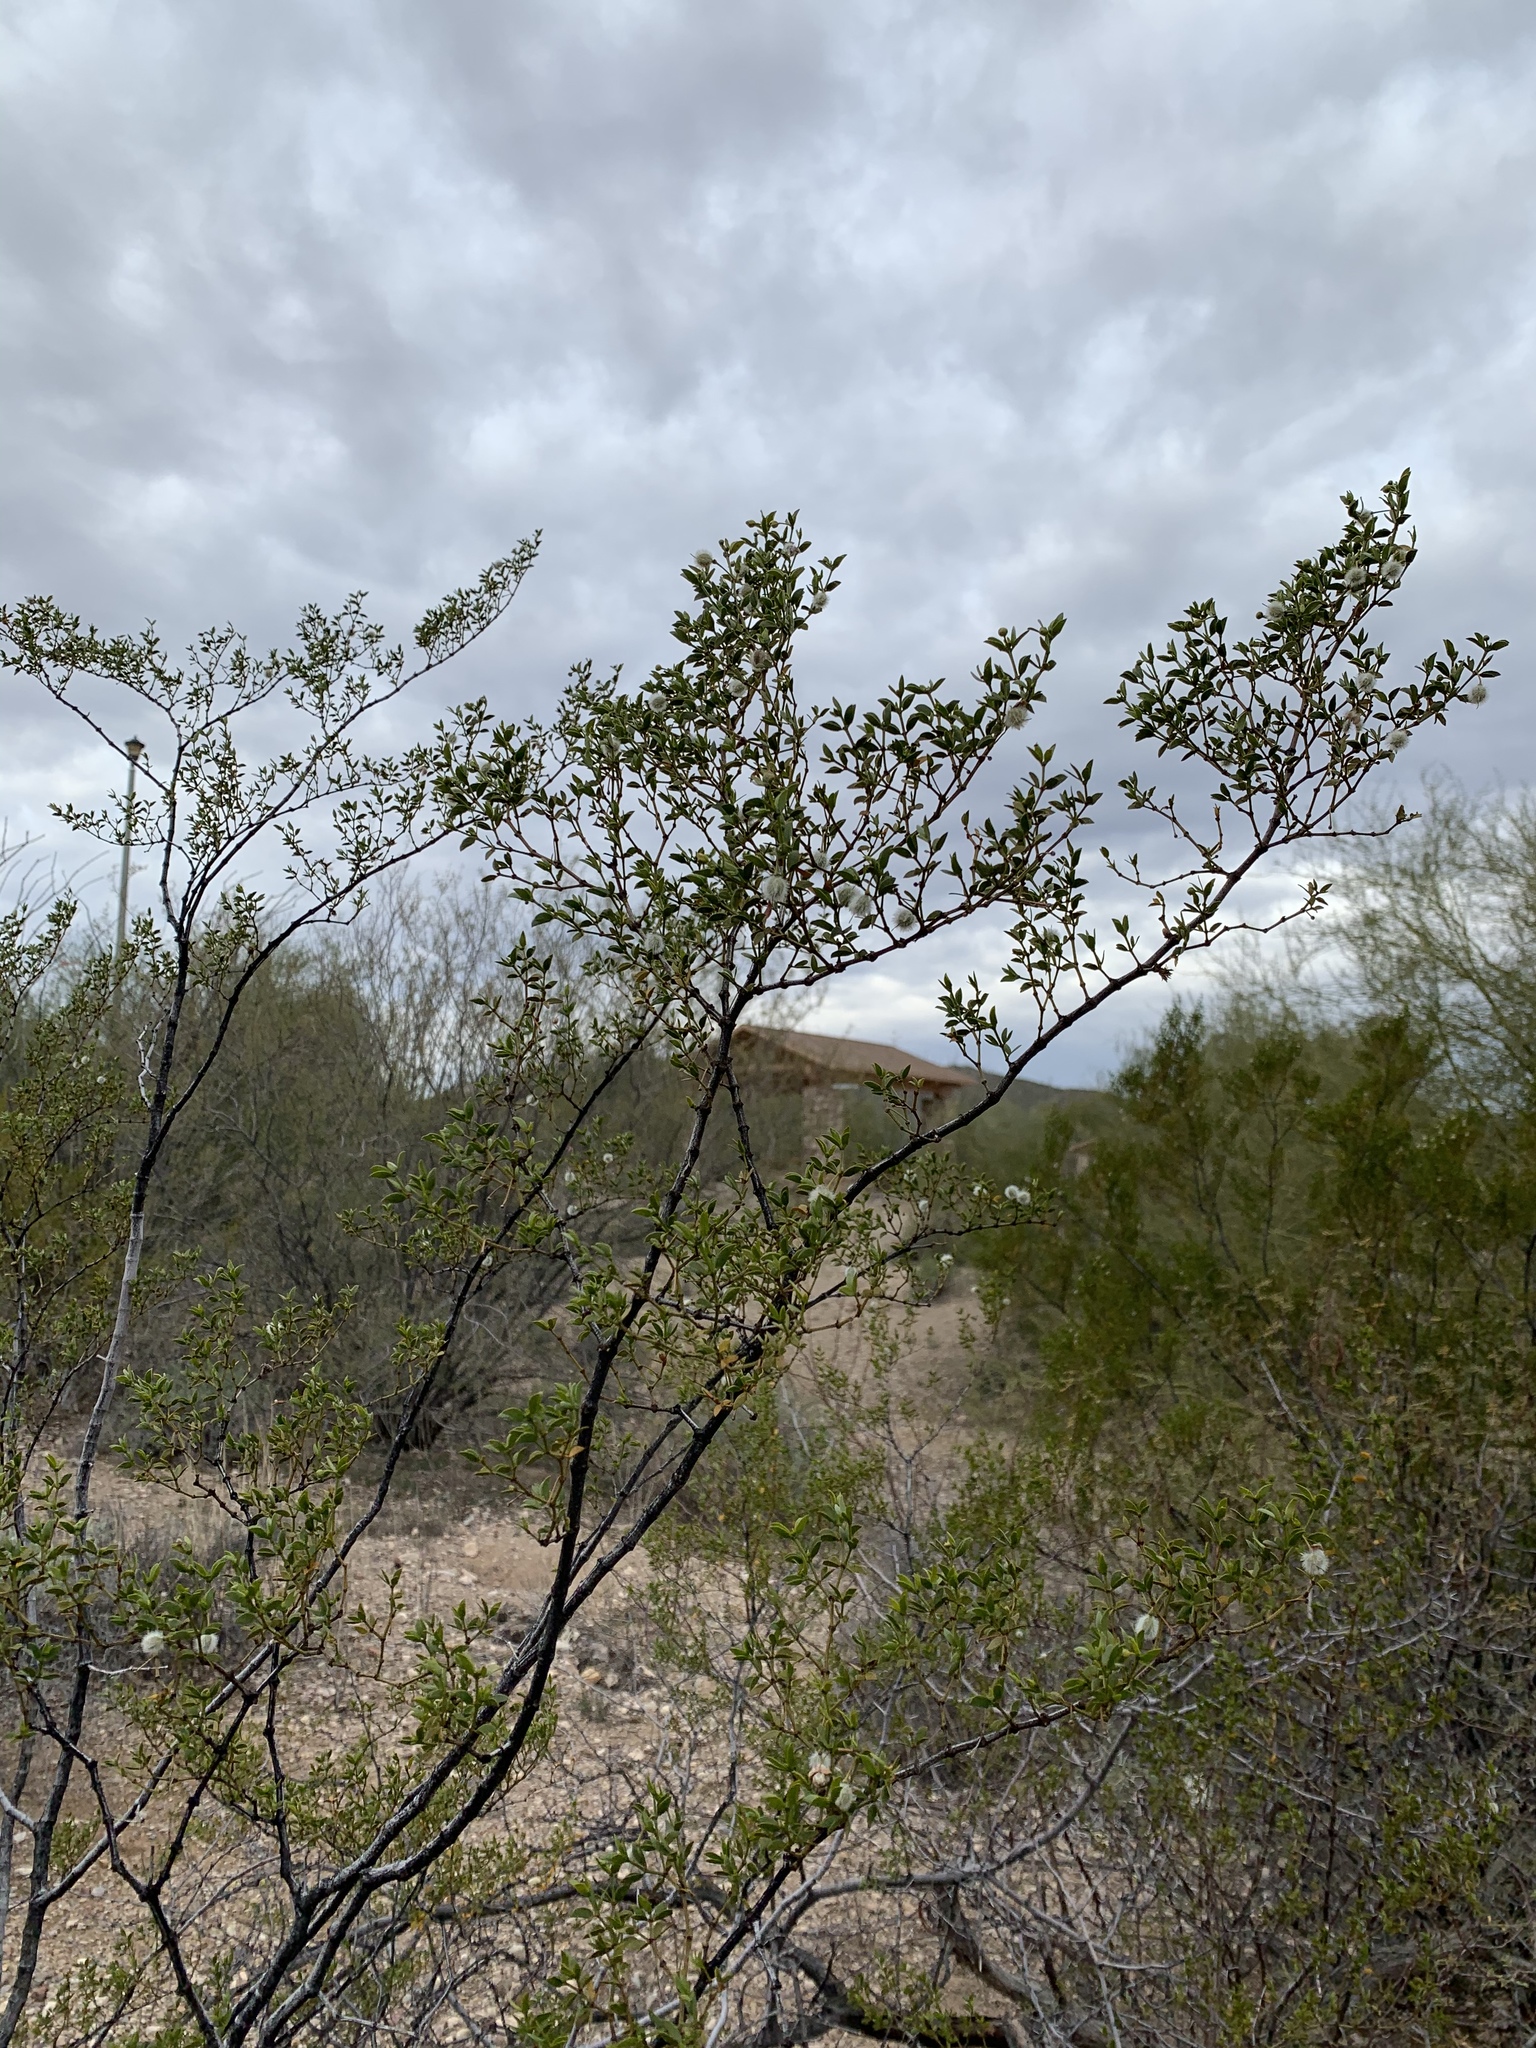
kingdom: Plantae
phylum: Tracheophyta
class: Magnoliopsida
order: Zygophyllales
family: Zygophyllaceae
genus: Larrea
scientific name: Larrea tridentata
